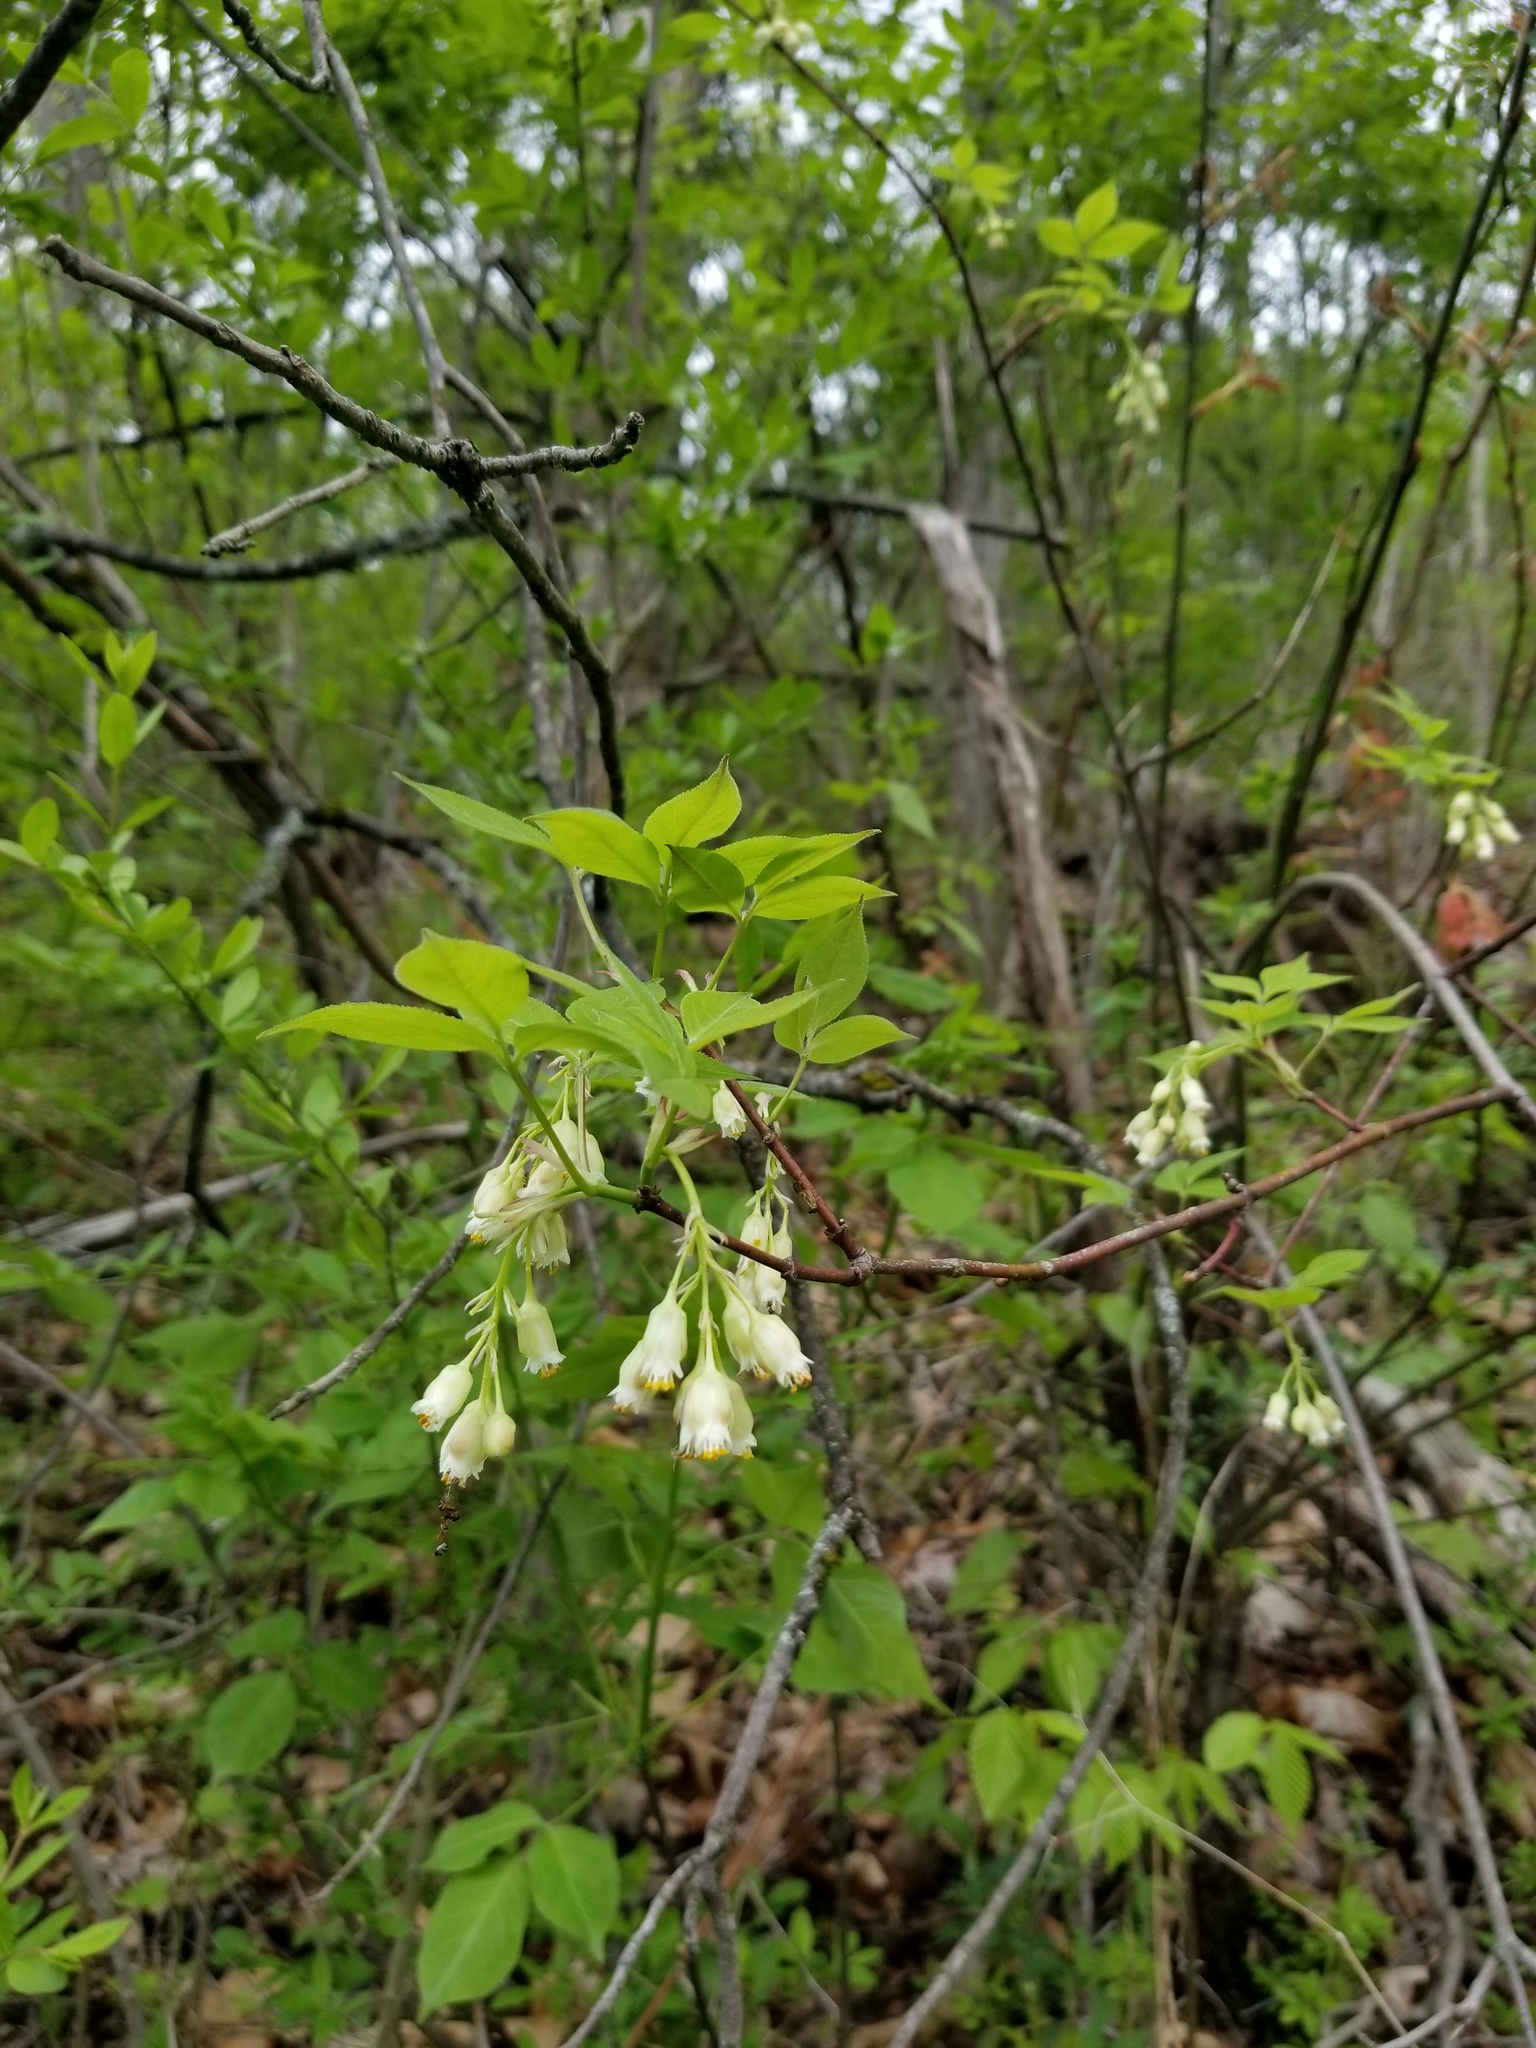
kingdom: Plantae
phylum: Tracheophyta
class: Magnoliopsida
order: Crossosomatales
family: Staphyleaceae
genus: Staphylea
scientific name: Staphylea trifolia
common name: American bladdernut
